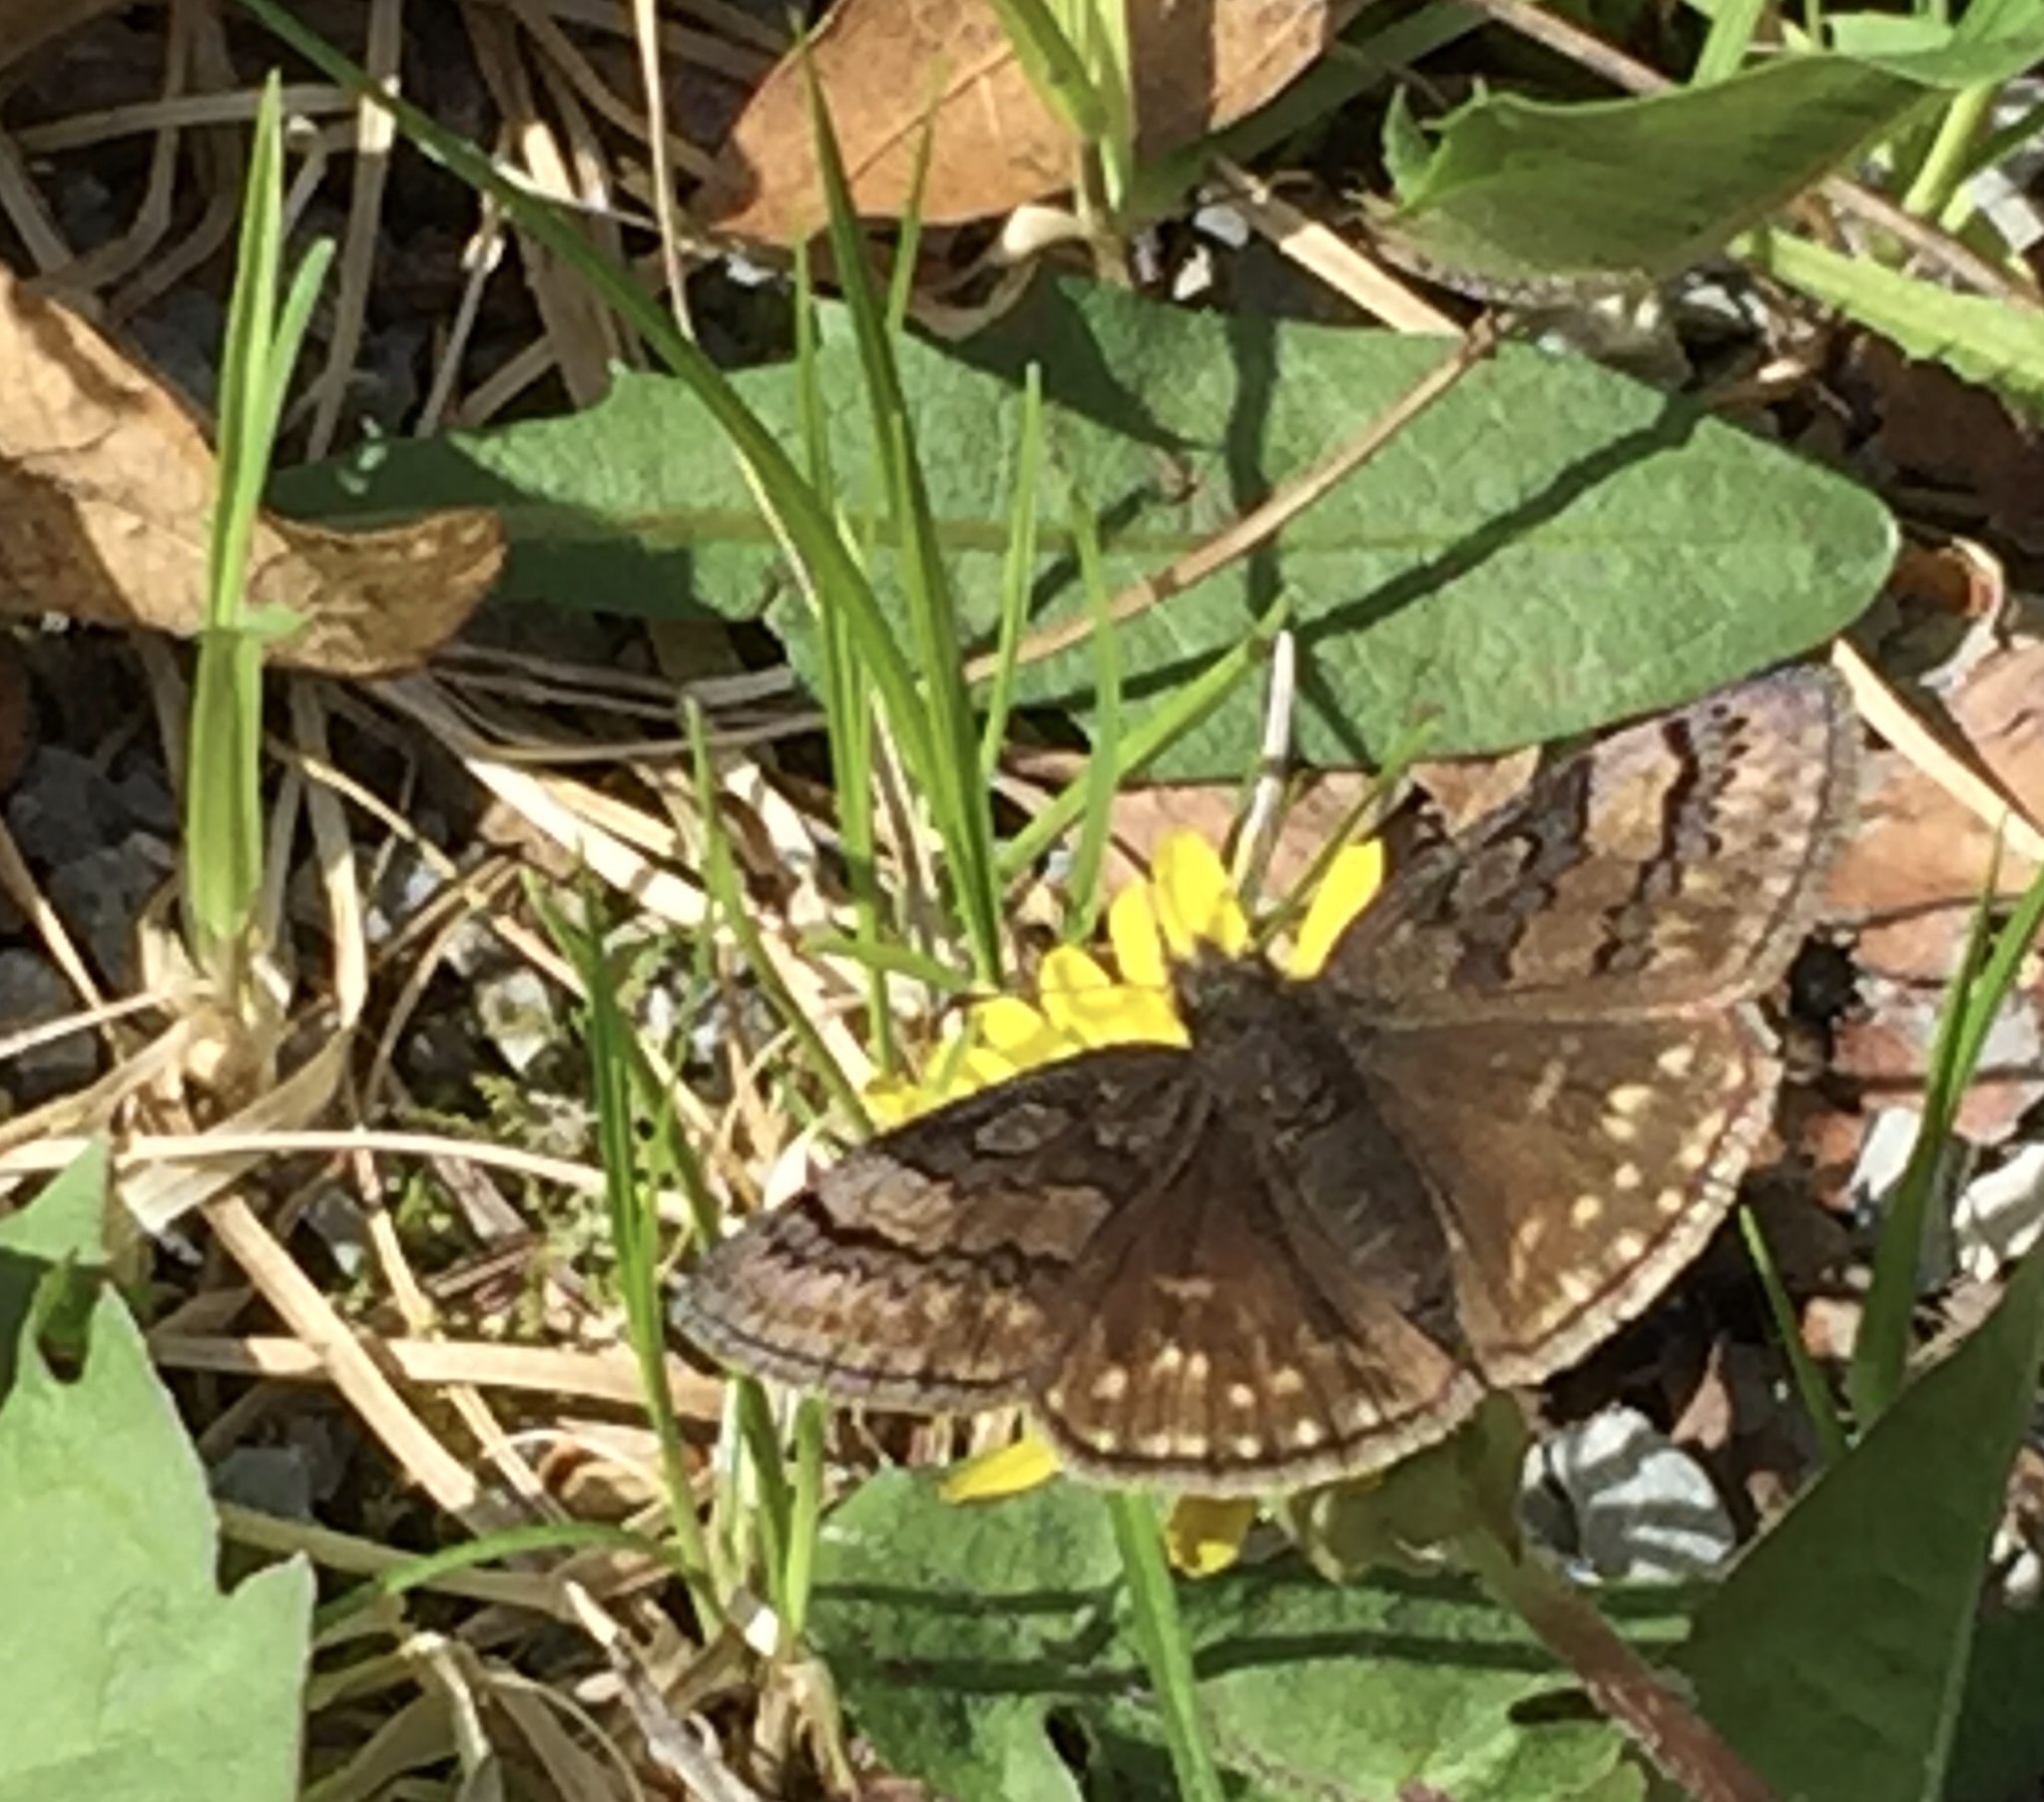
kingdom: Animalia
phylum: Arthropoda
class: Insecta
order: Lepidoptera
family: Hesperiidae
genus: Erynnis
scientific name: Erynnis brizo
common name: Sleepy duskywing
